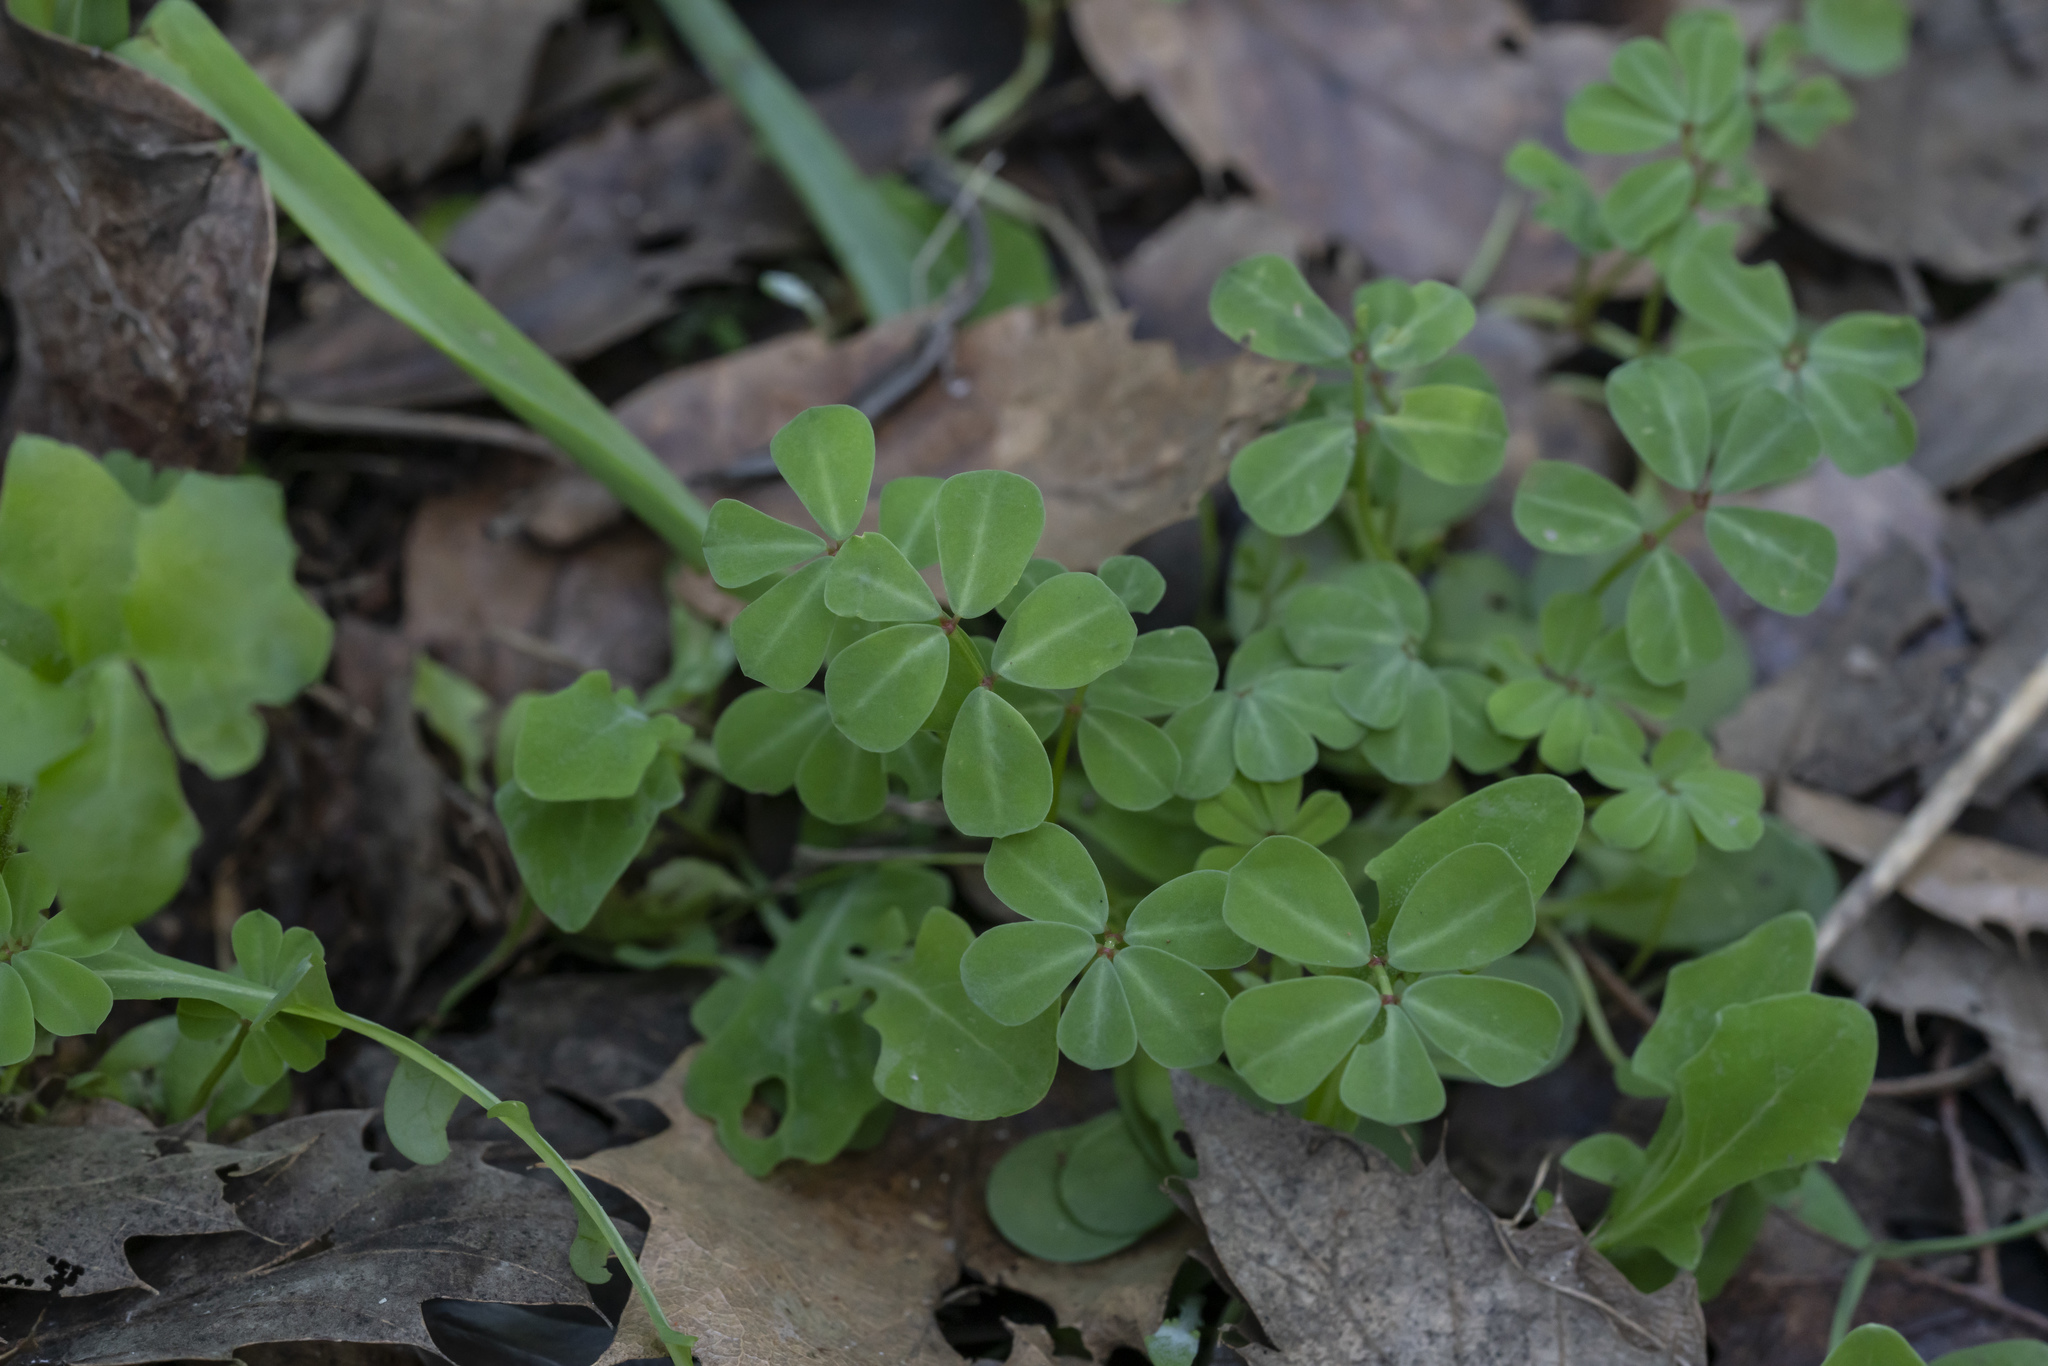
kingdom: Animalia
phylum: Arthropoda
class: Insecta
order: Orthoptera
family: Romaleidae
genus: Securigera
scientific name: Securigera
